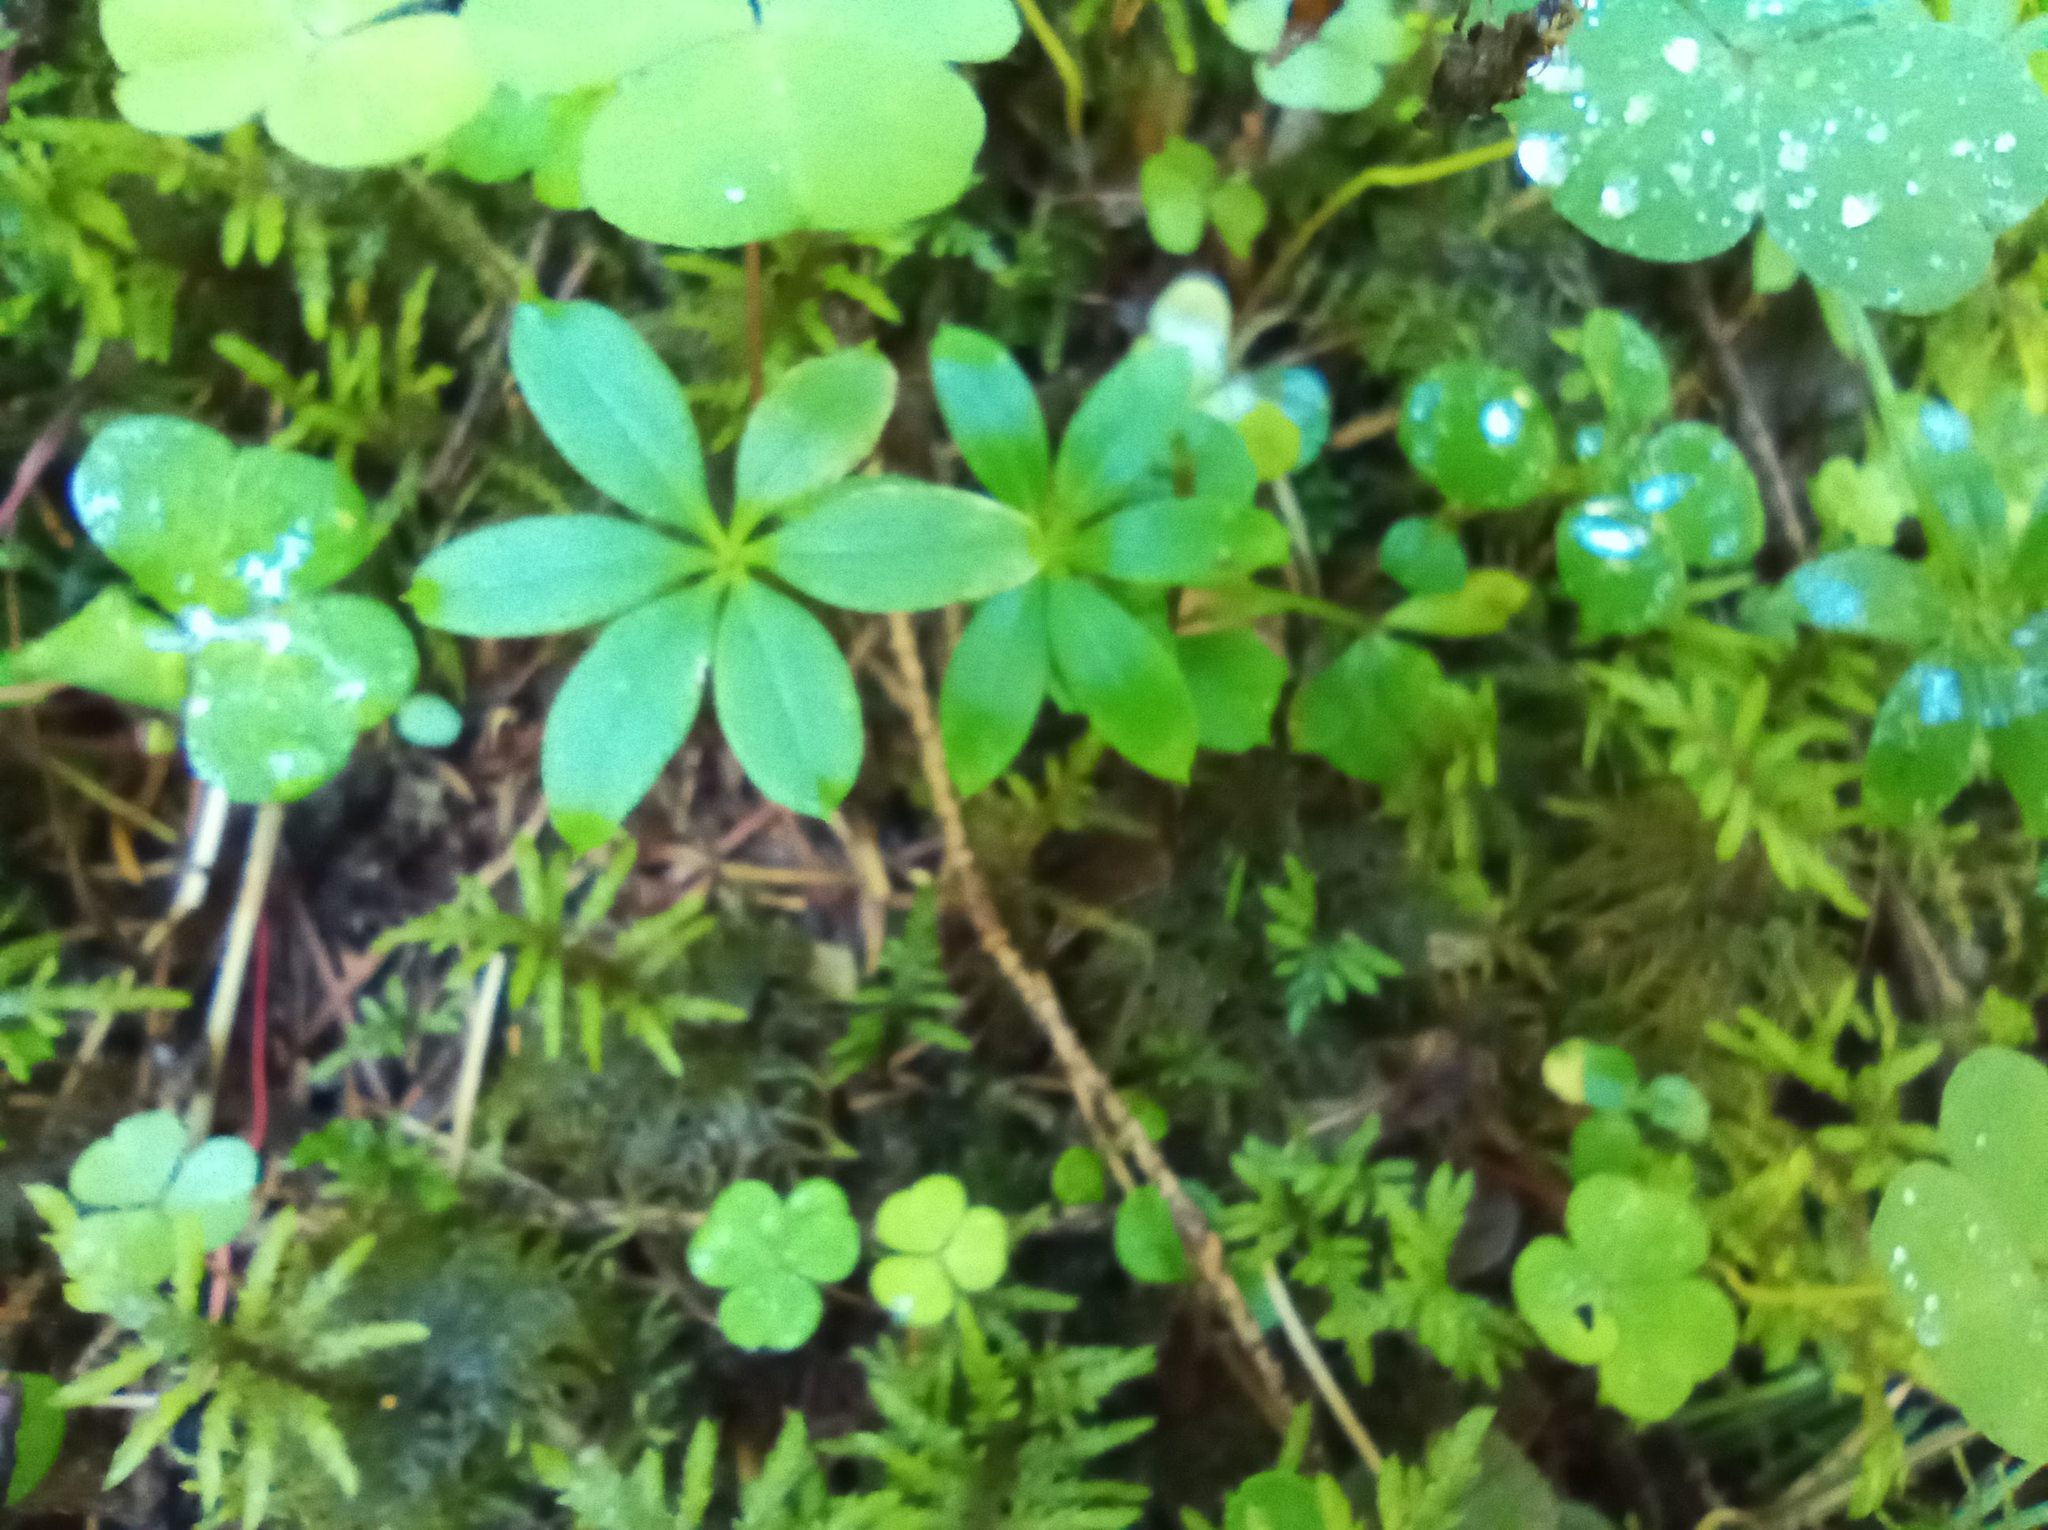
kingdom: Plantae
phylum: Tracheophyta
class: Magnoliopsida
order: Gentianales
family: Rubiaceae
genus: Galium
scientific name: Galium triflorum
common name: Fragrant bedstraw
